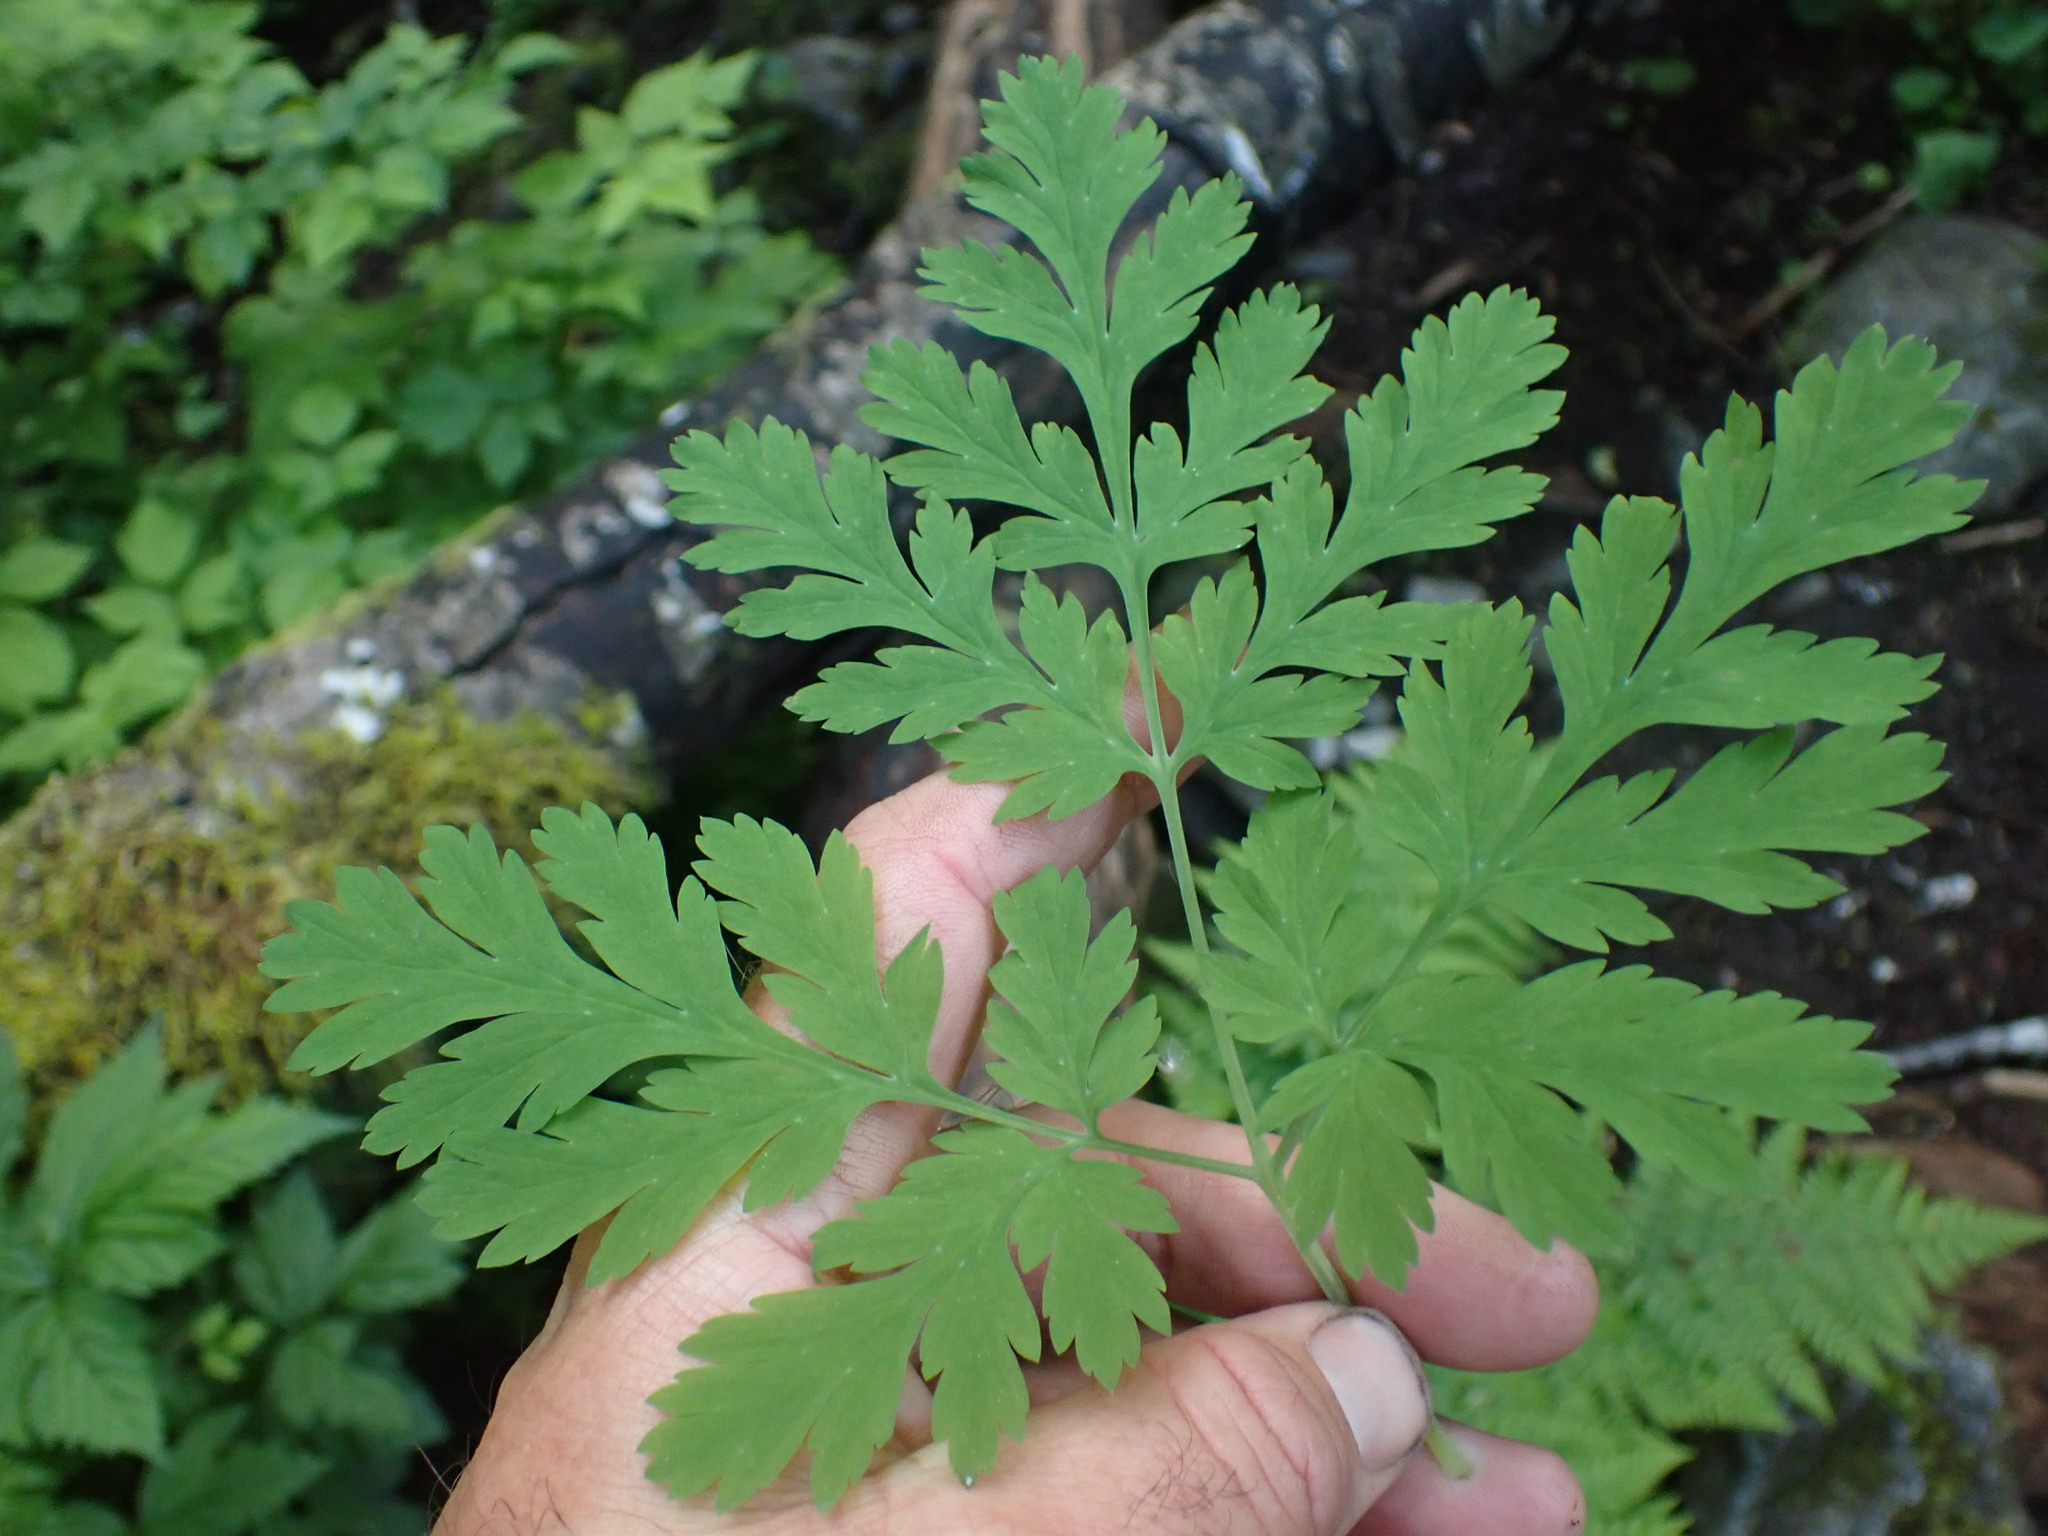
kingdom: Plantae
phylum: Tracheophyta
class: Magnoliopsida
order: Ranunculales
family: Papaveraceae
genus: Dicentra
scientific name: Dicentra formosa
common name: Bleeding-heart
